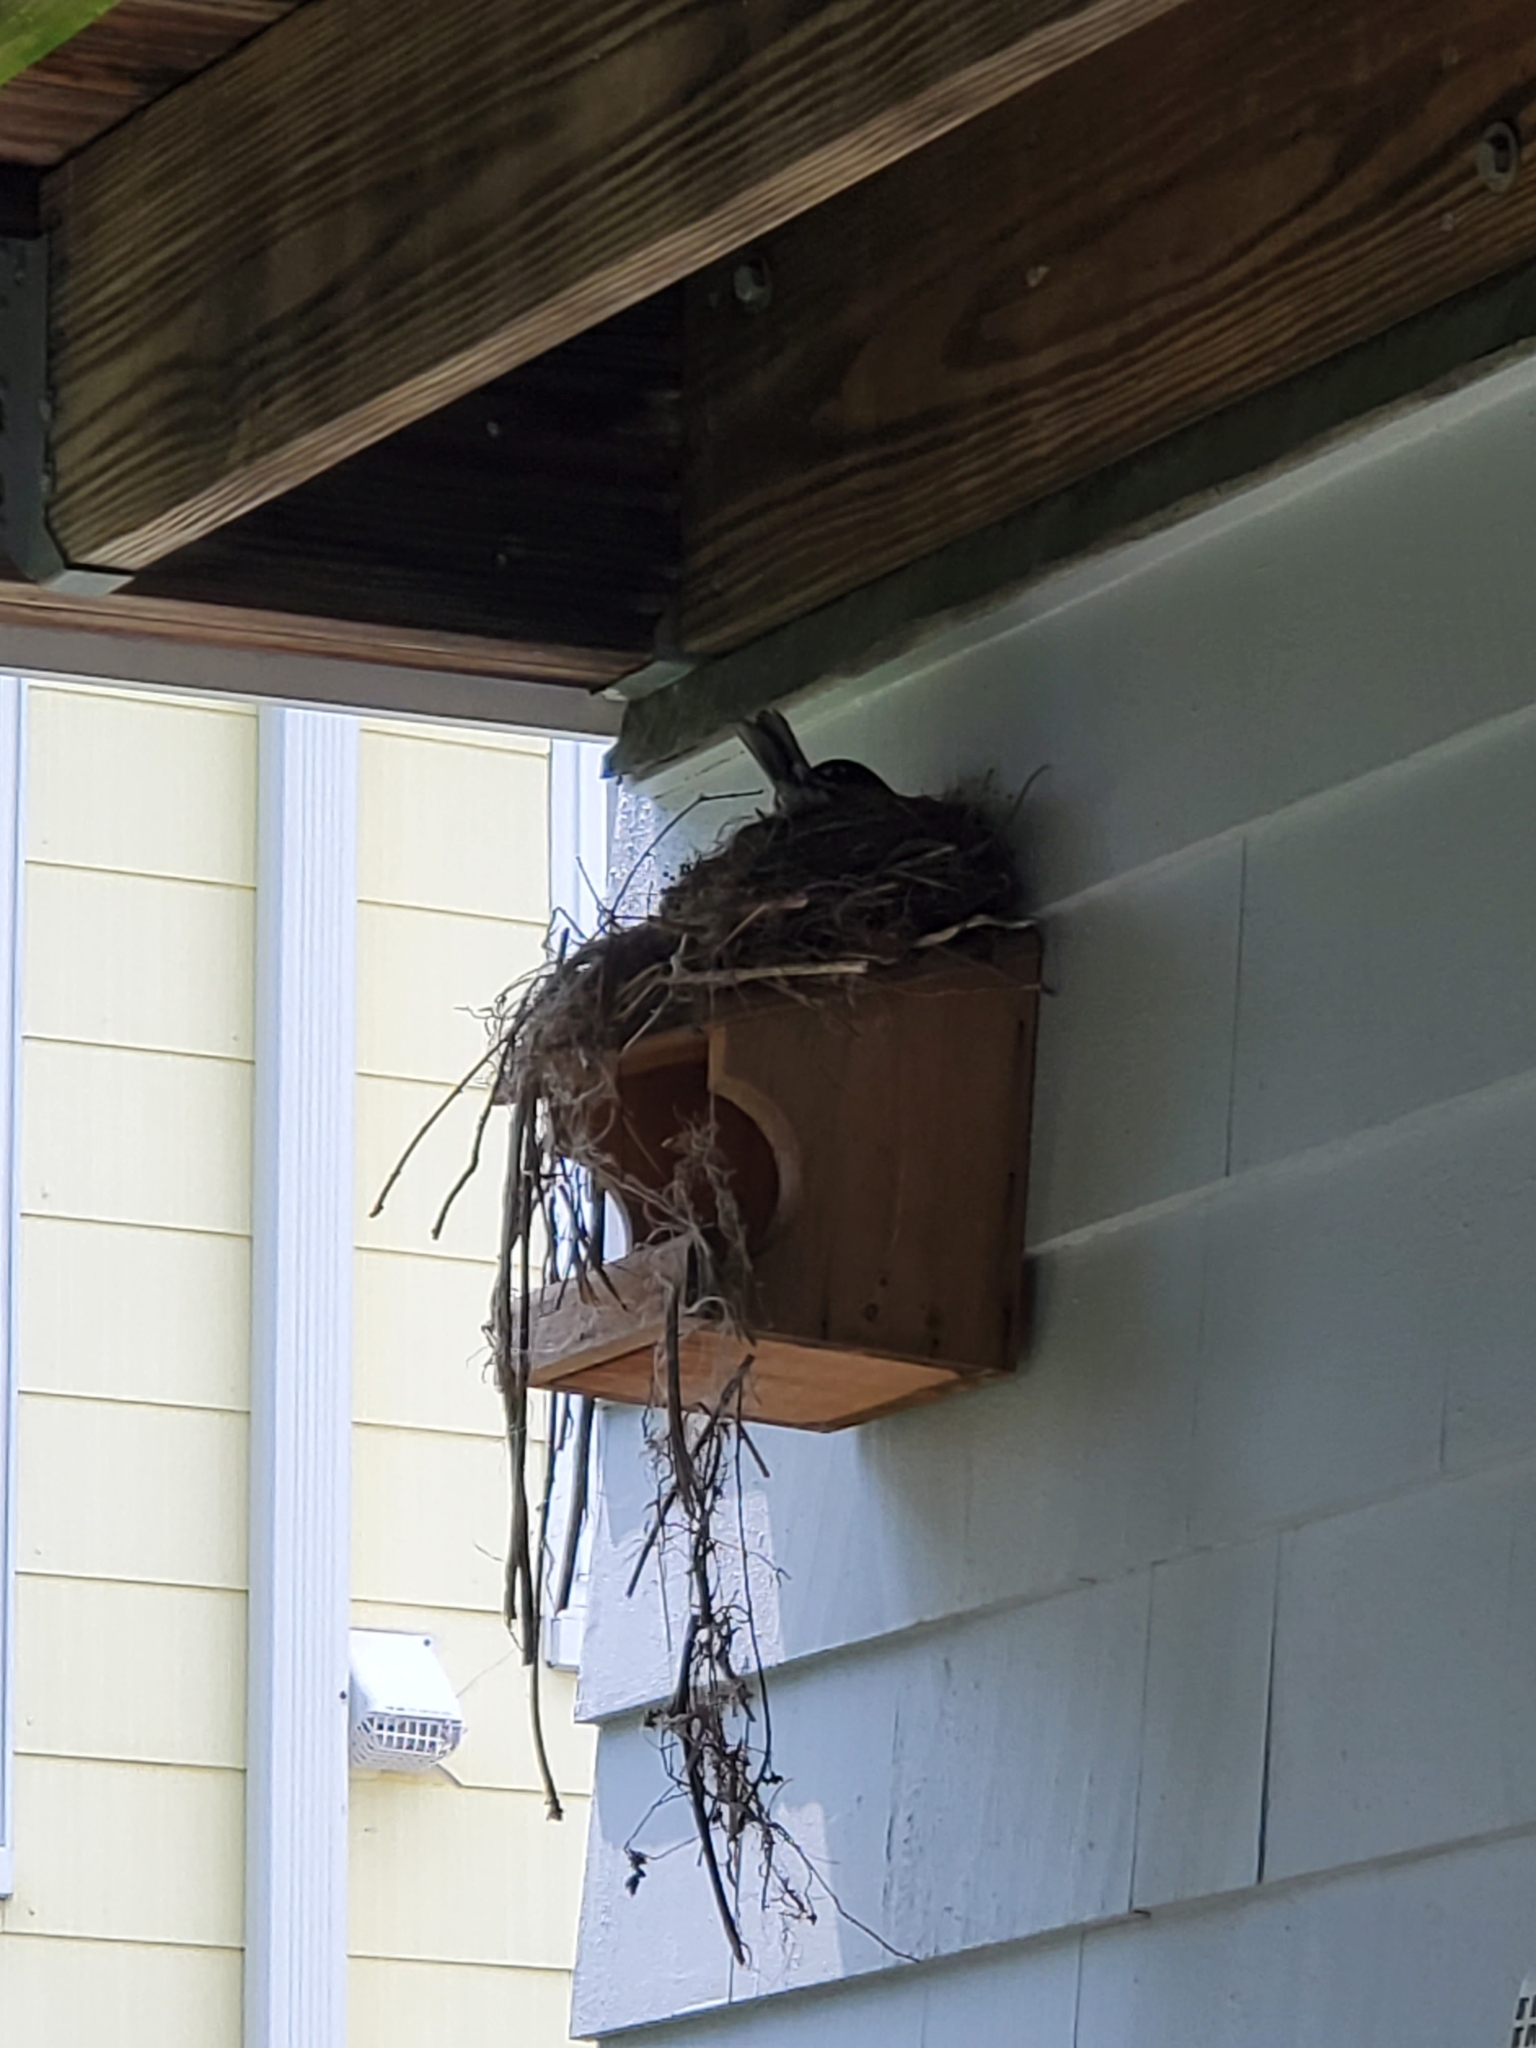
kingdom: Animalia
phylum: Chordata
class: Aves
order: Passeriformes
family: Turdidae
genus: Turdus
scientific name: Turdus migratorius
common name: American robin
